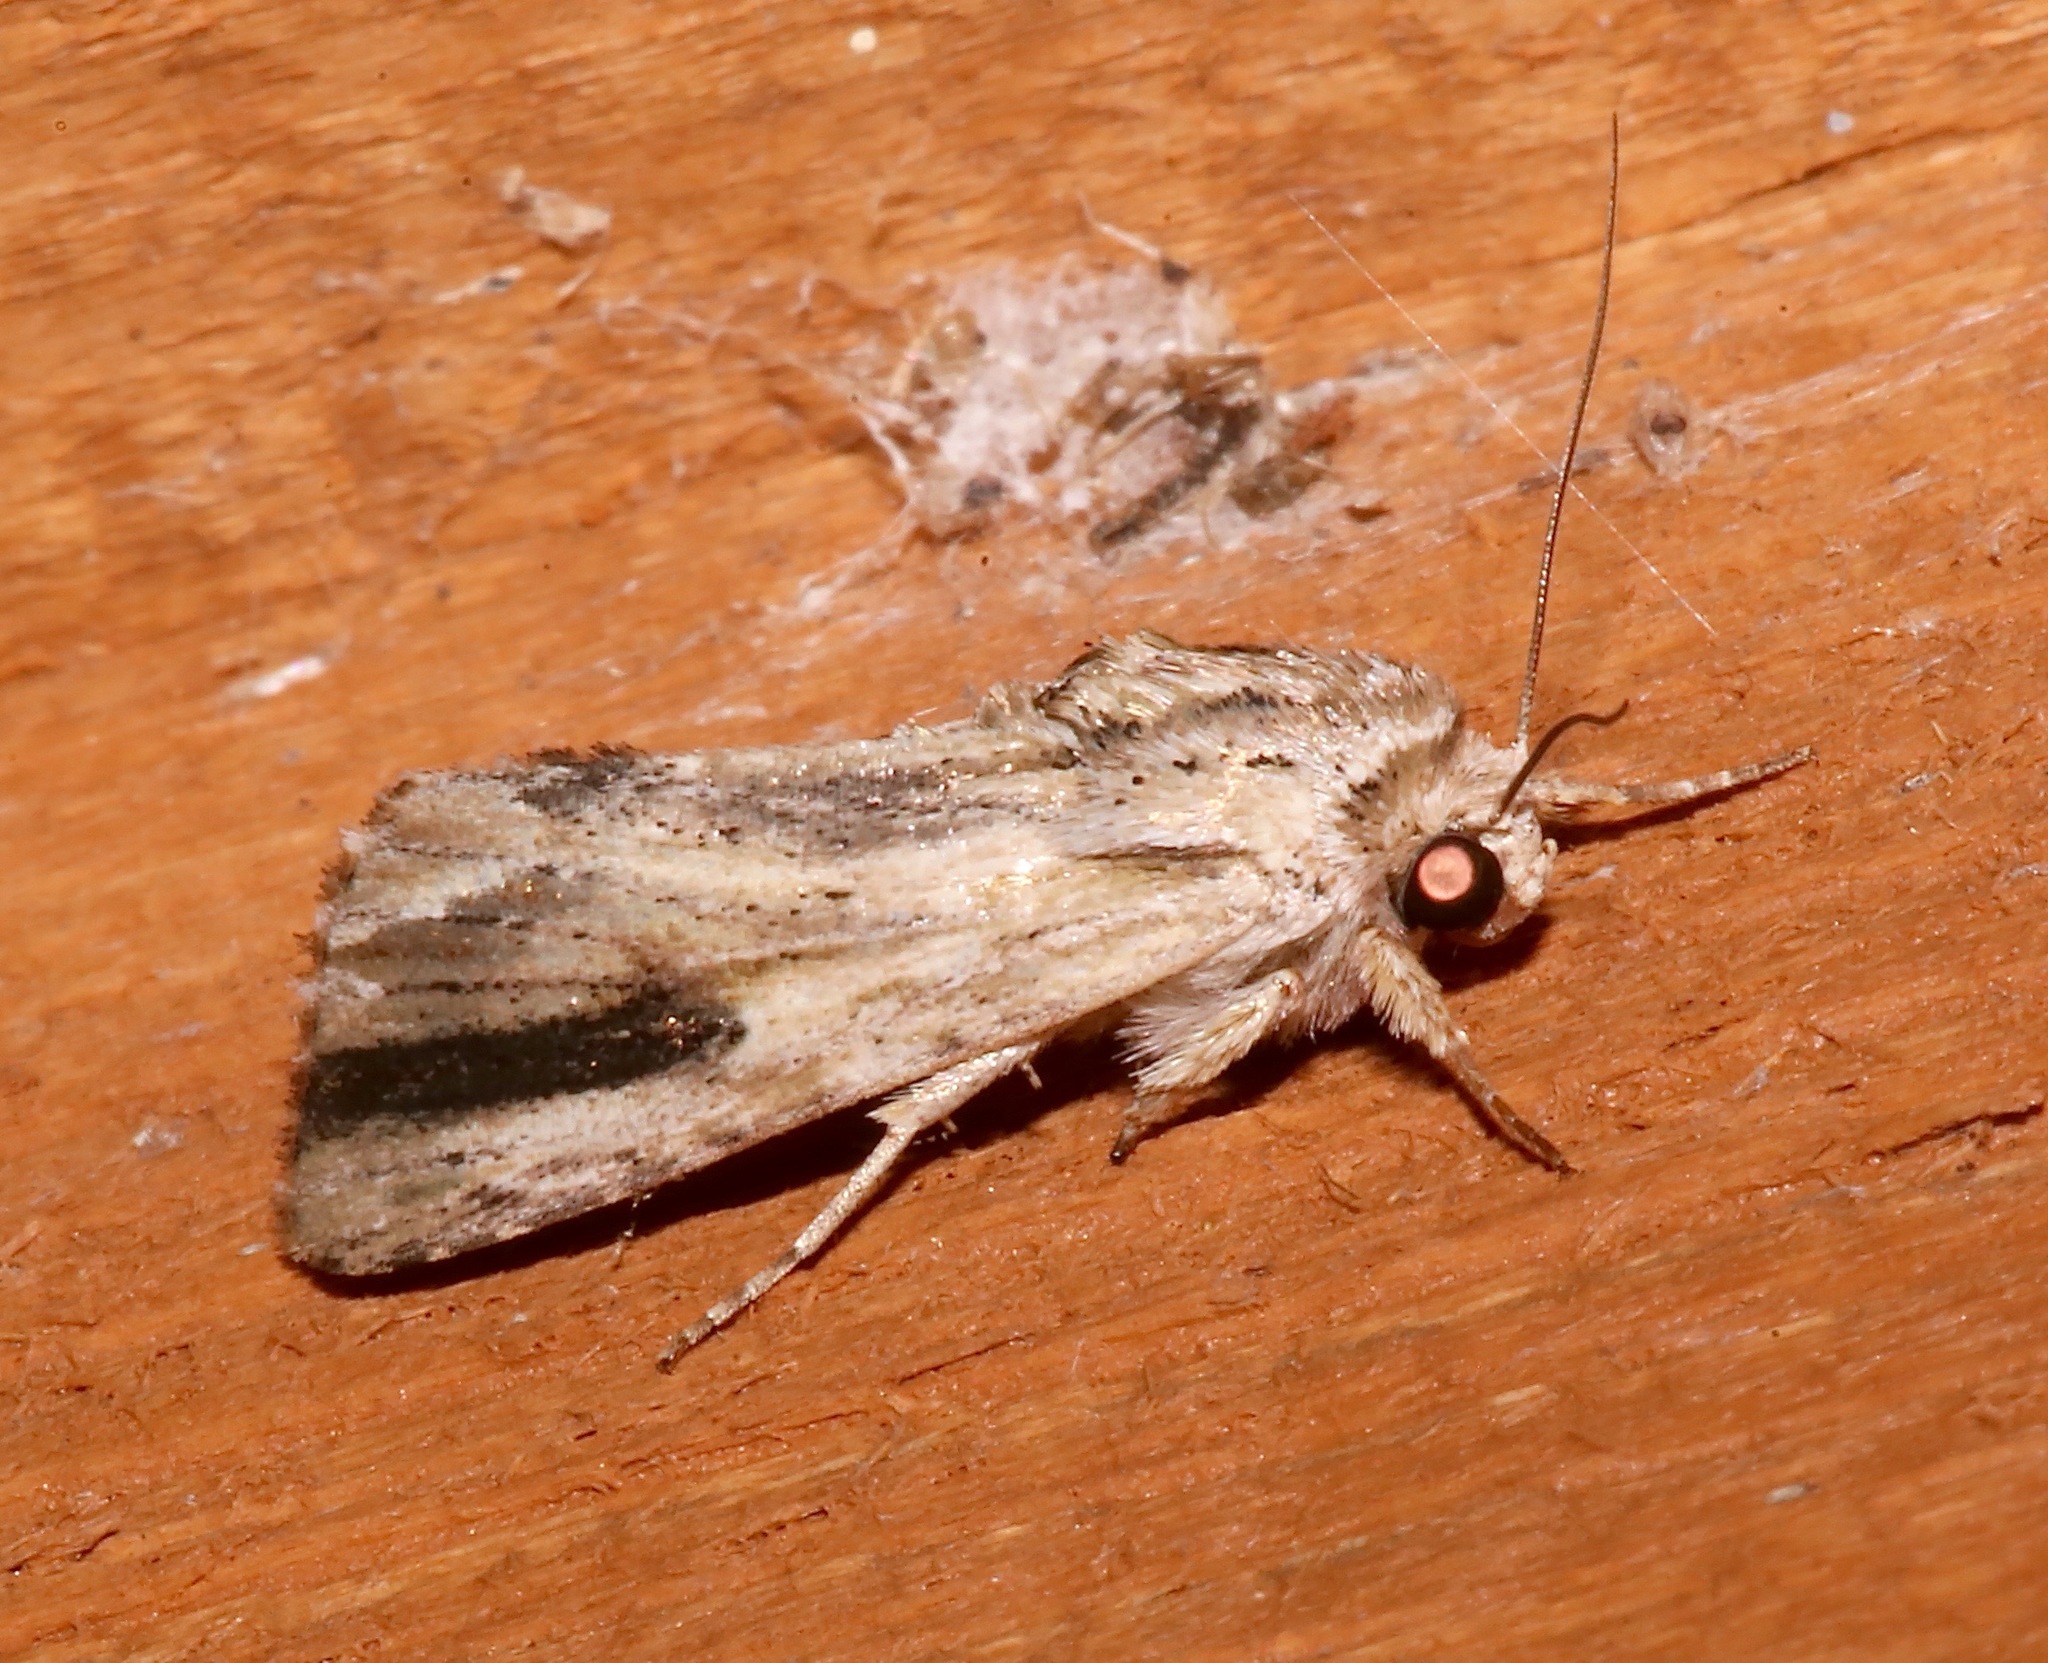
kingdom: Animalia
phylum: Arthropoda
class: Insecta
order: Lepidoptera
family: Noctuidae
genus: Spodoptera
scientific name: Spodoptera eridania
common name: Southern army worm
